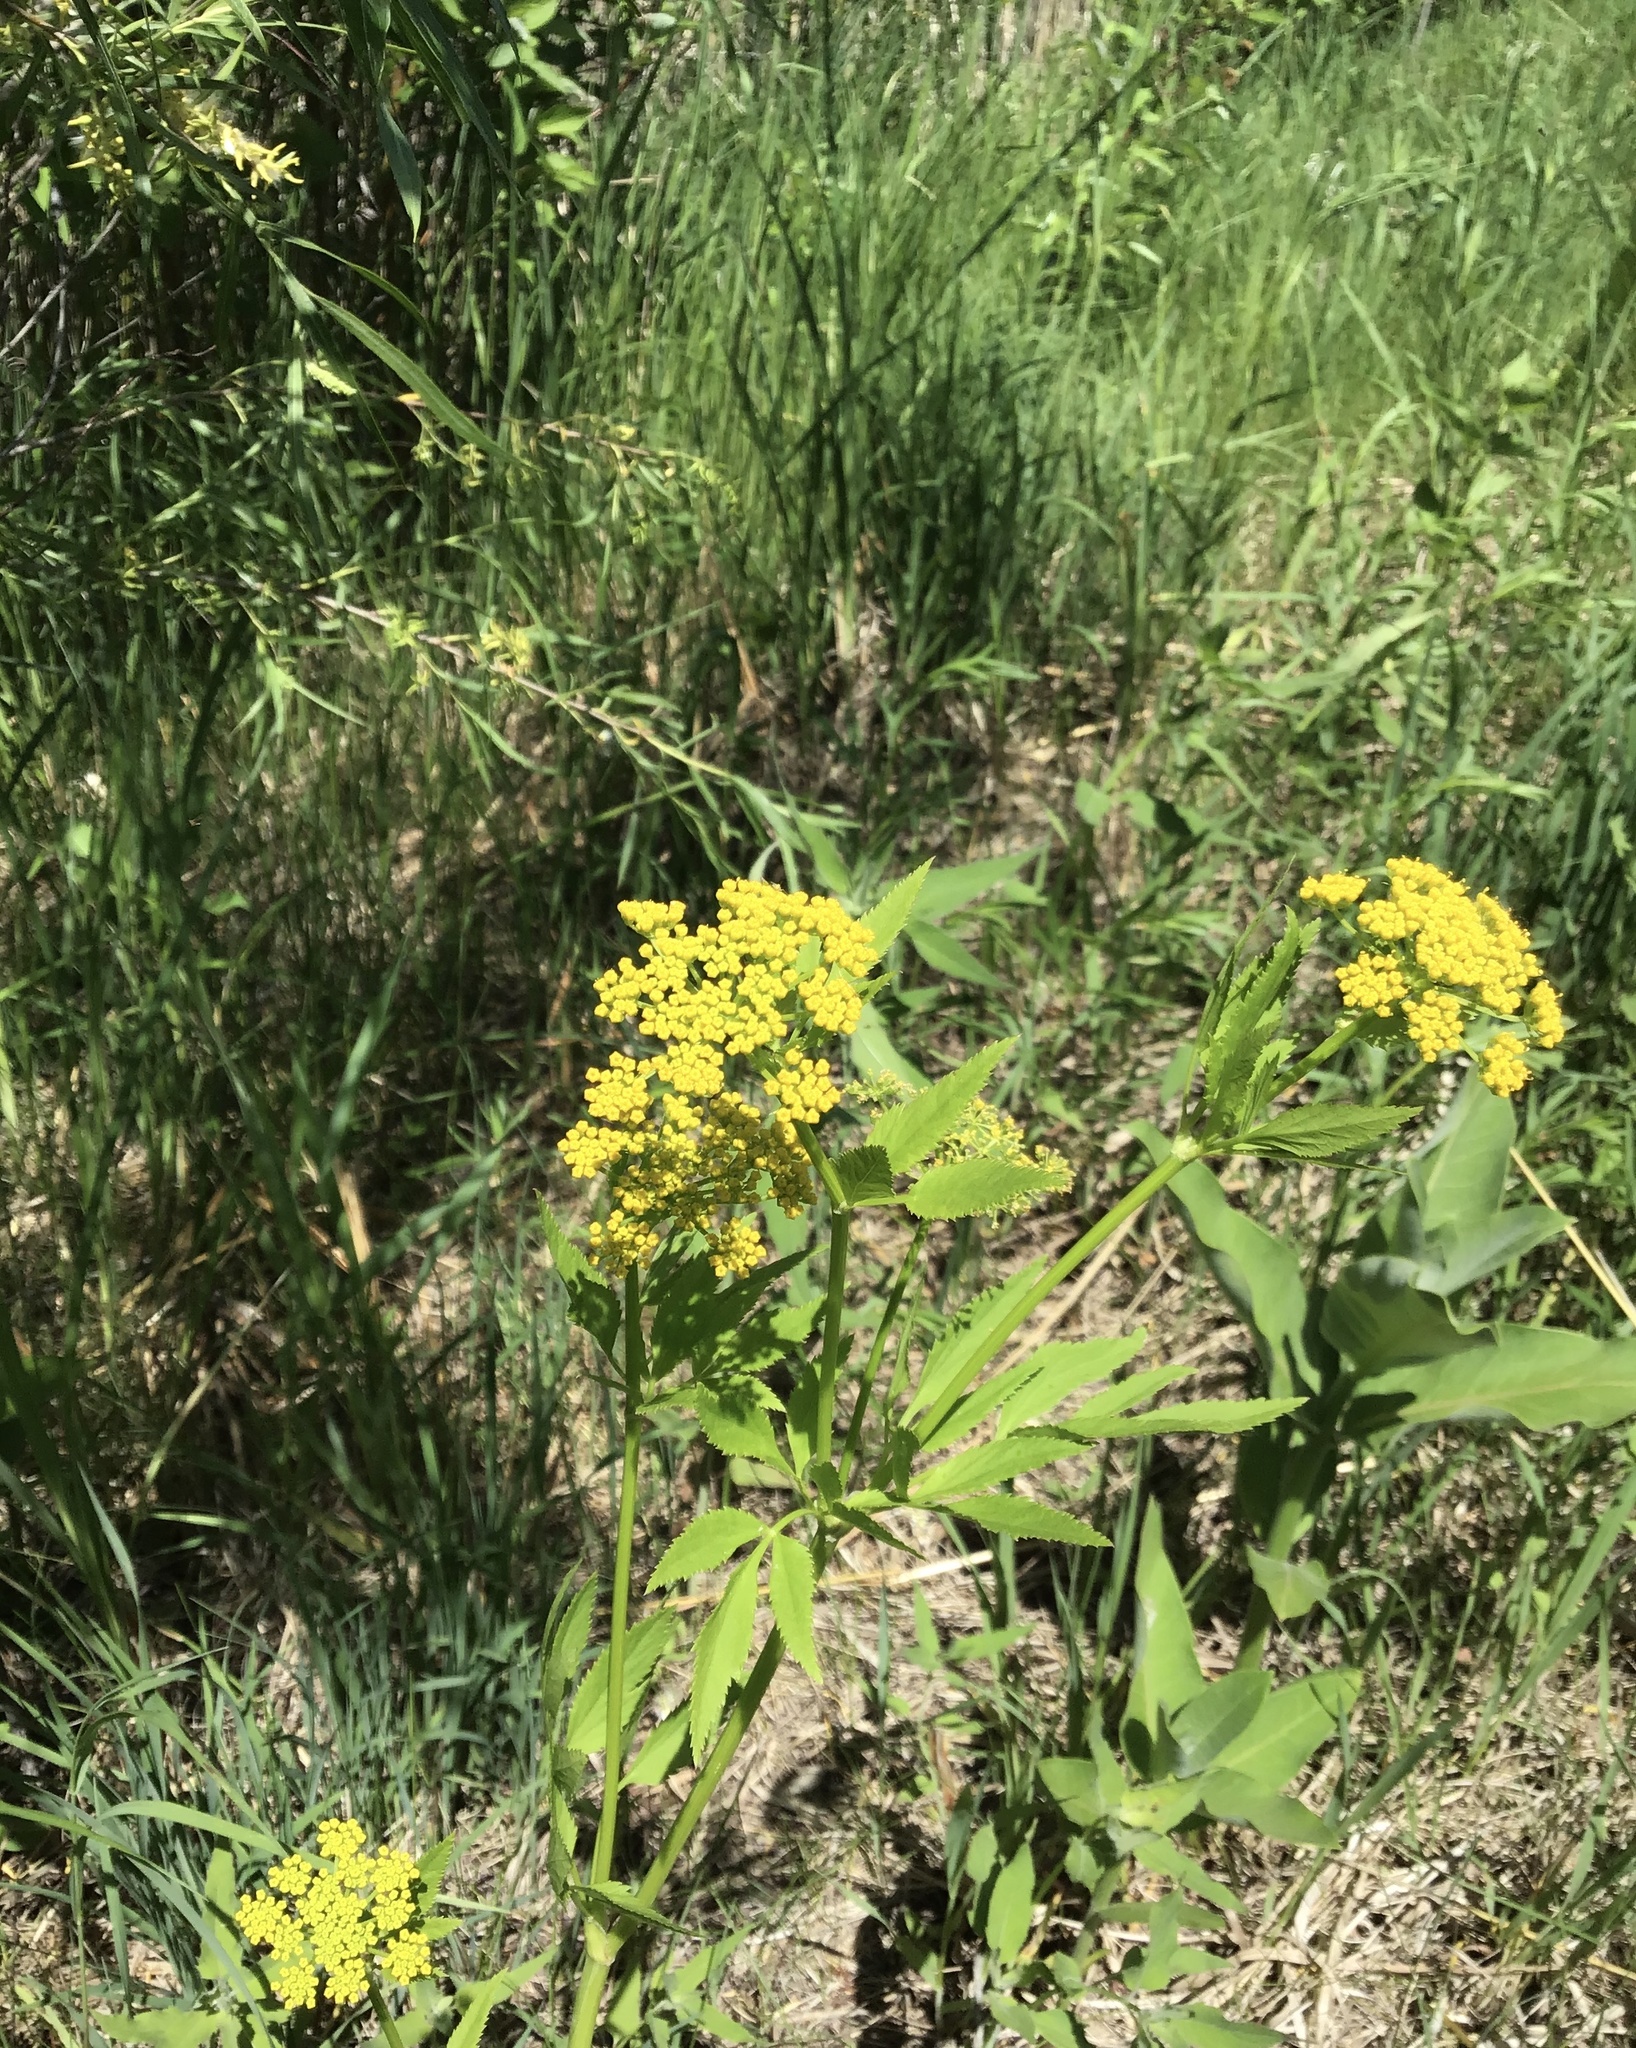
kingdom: Plantae
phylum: Tracheophyta
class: Magnoliopsida
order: Apiales
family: Apiaceae
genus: Zizia
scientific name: Zizia aurea
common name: Golden alexanders
